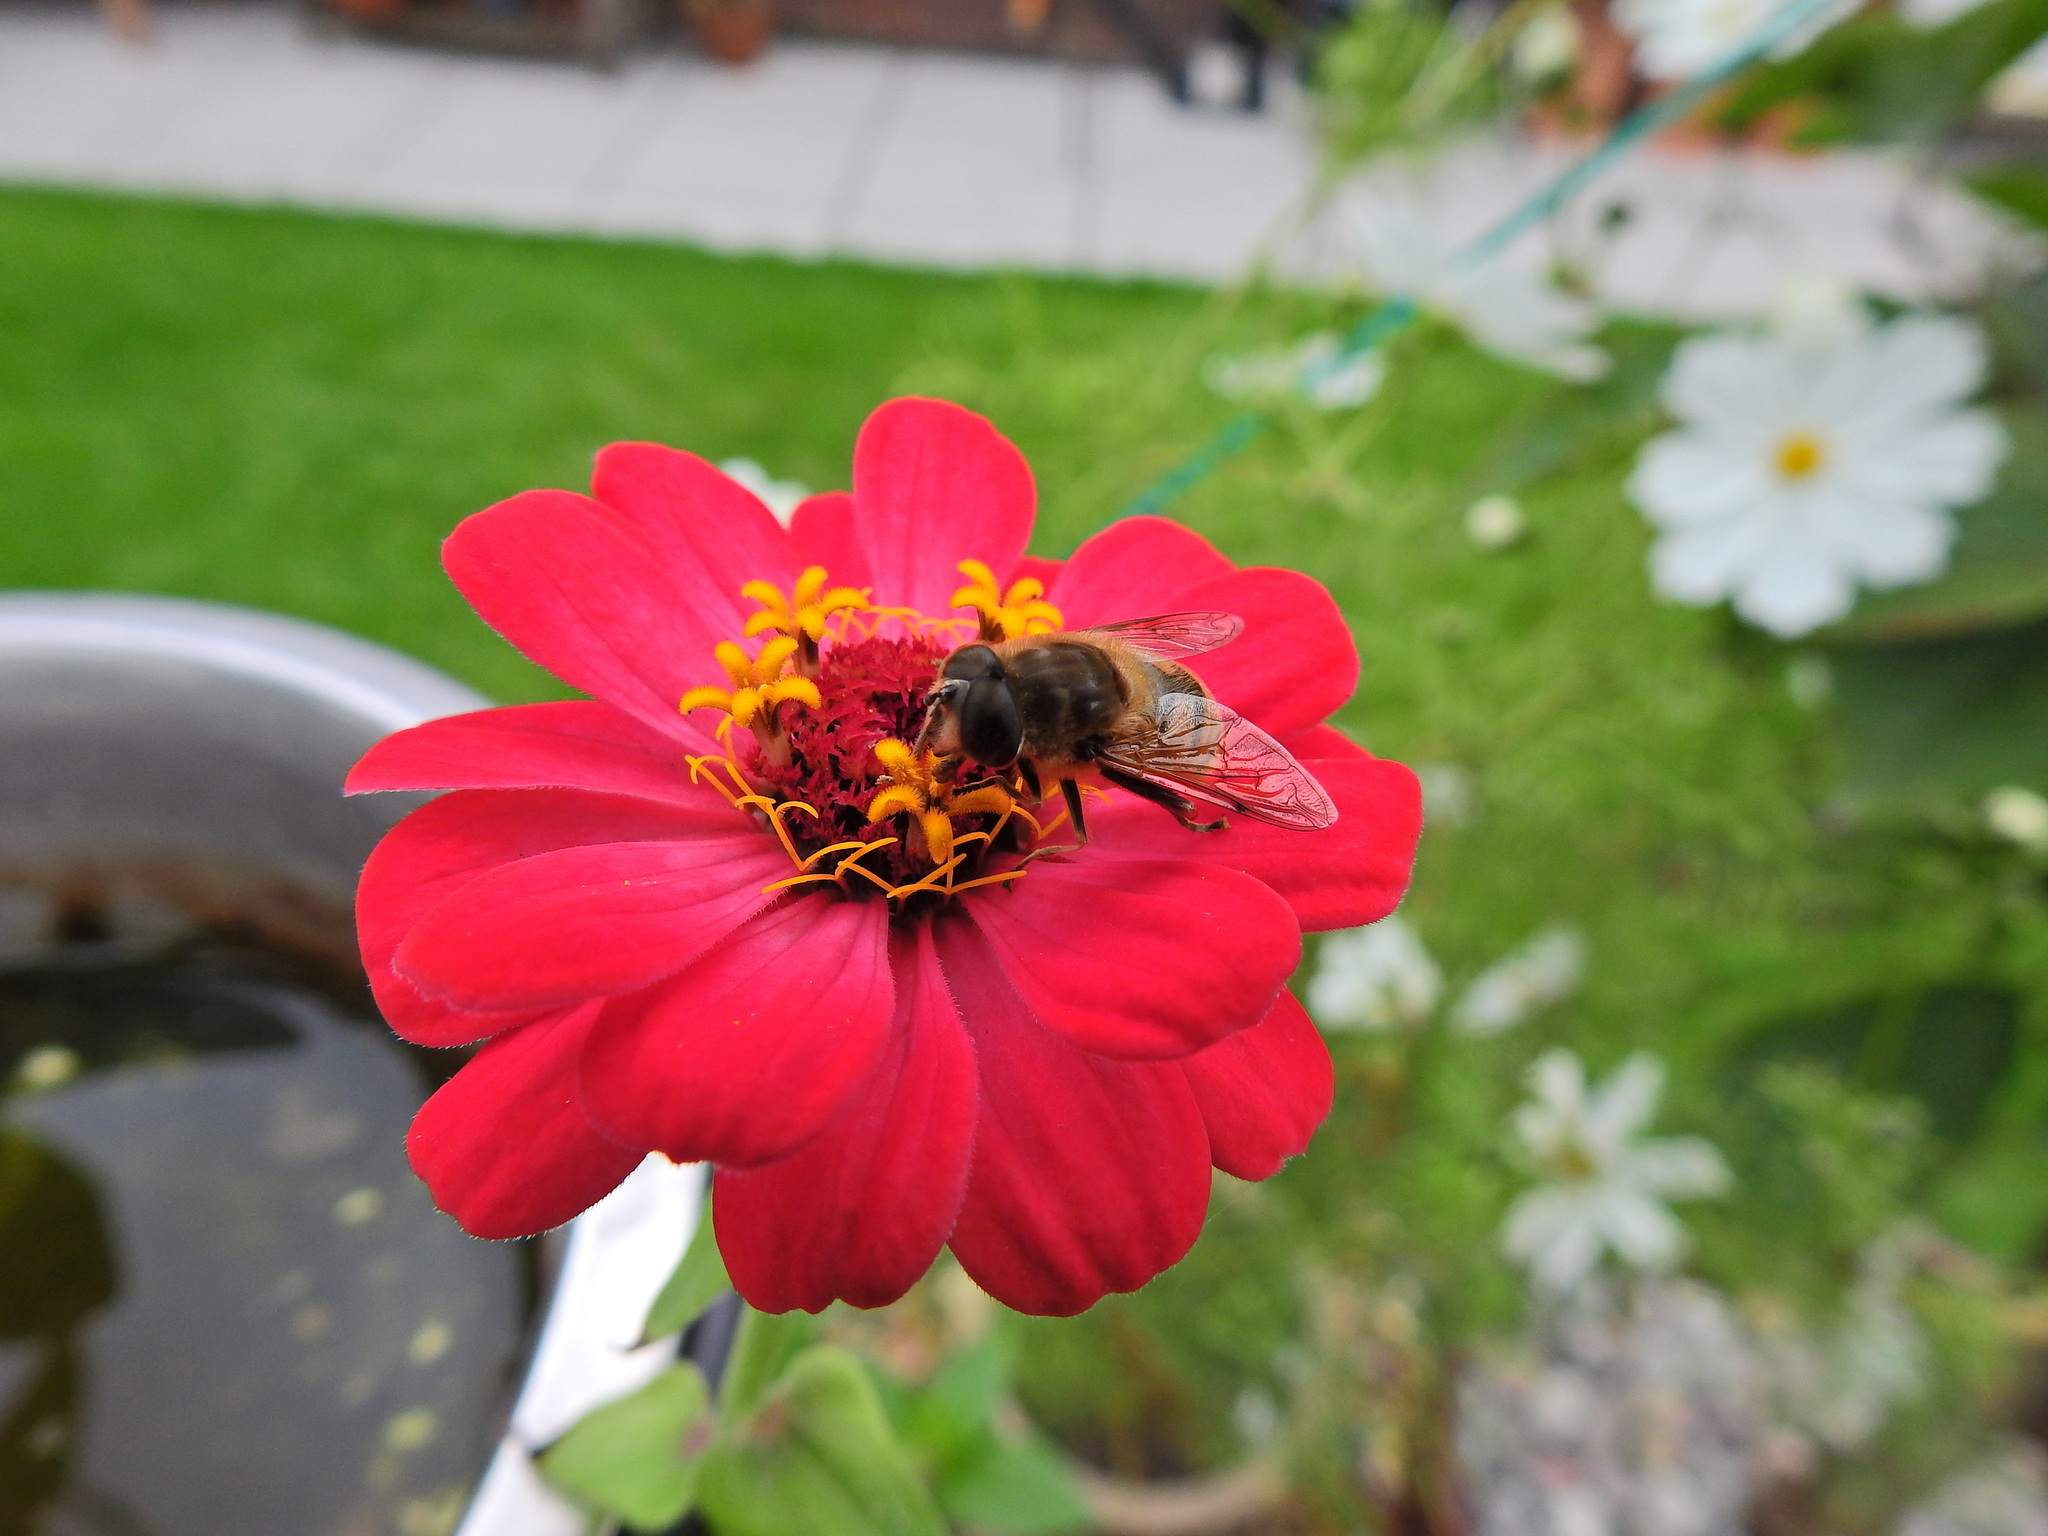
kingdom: Animalia
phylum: Arthropoda
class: Insecta
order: Diptera
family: Syrphidae
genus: Eristalis
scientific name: Eristalis tenax
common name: Drone fly
